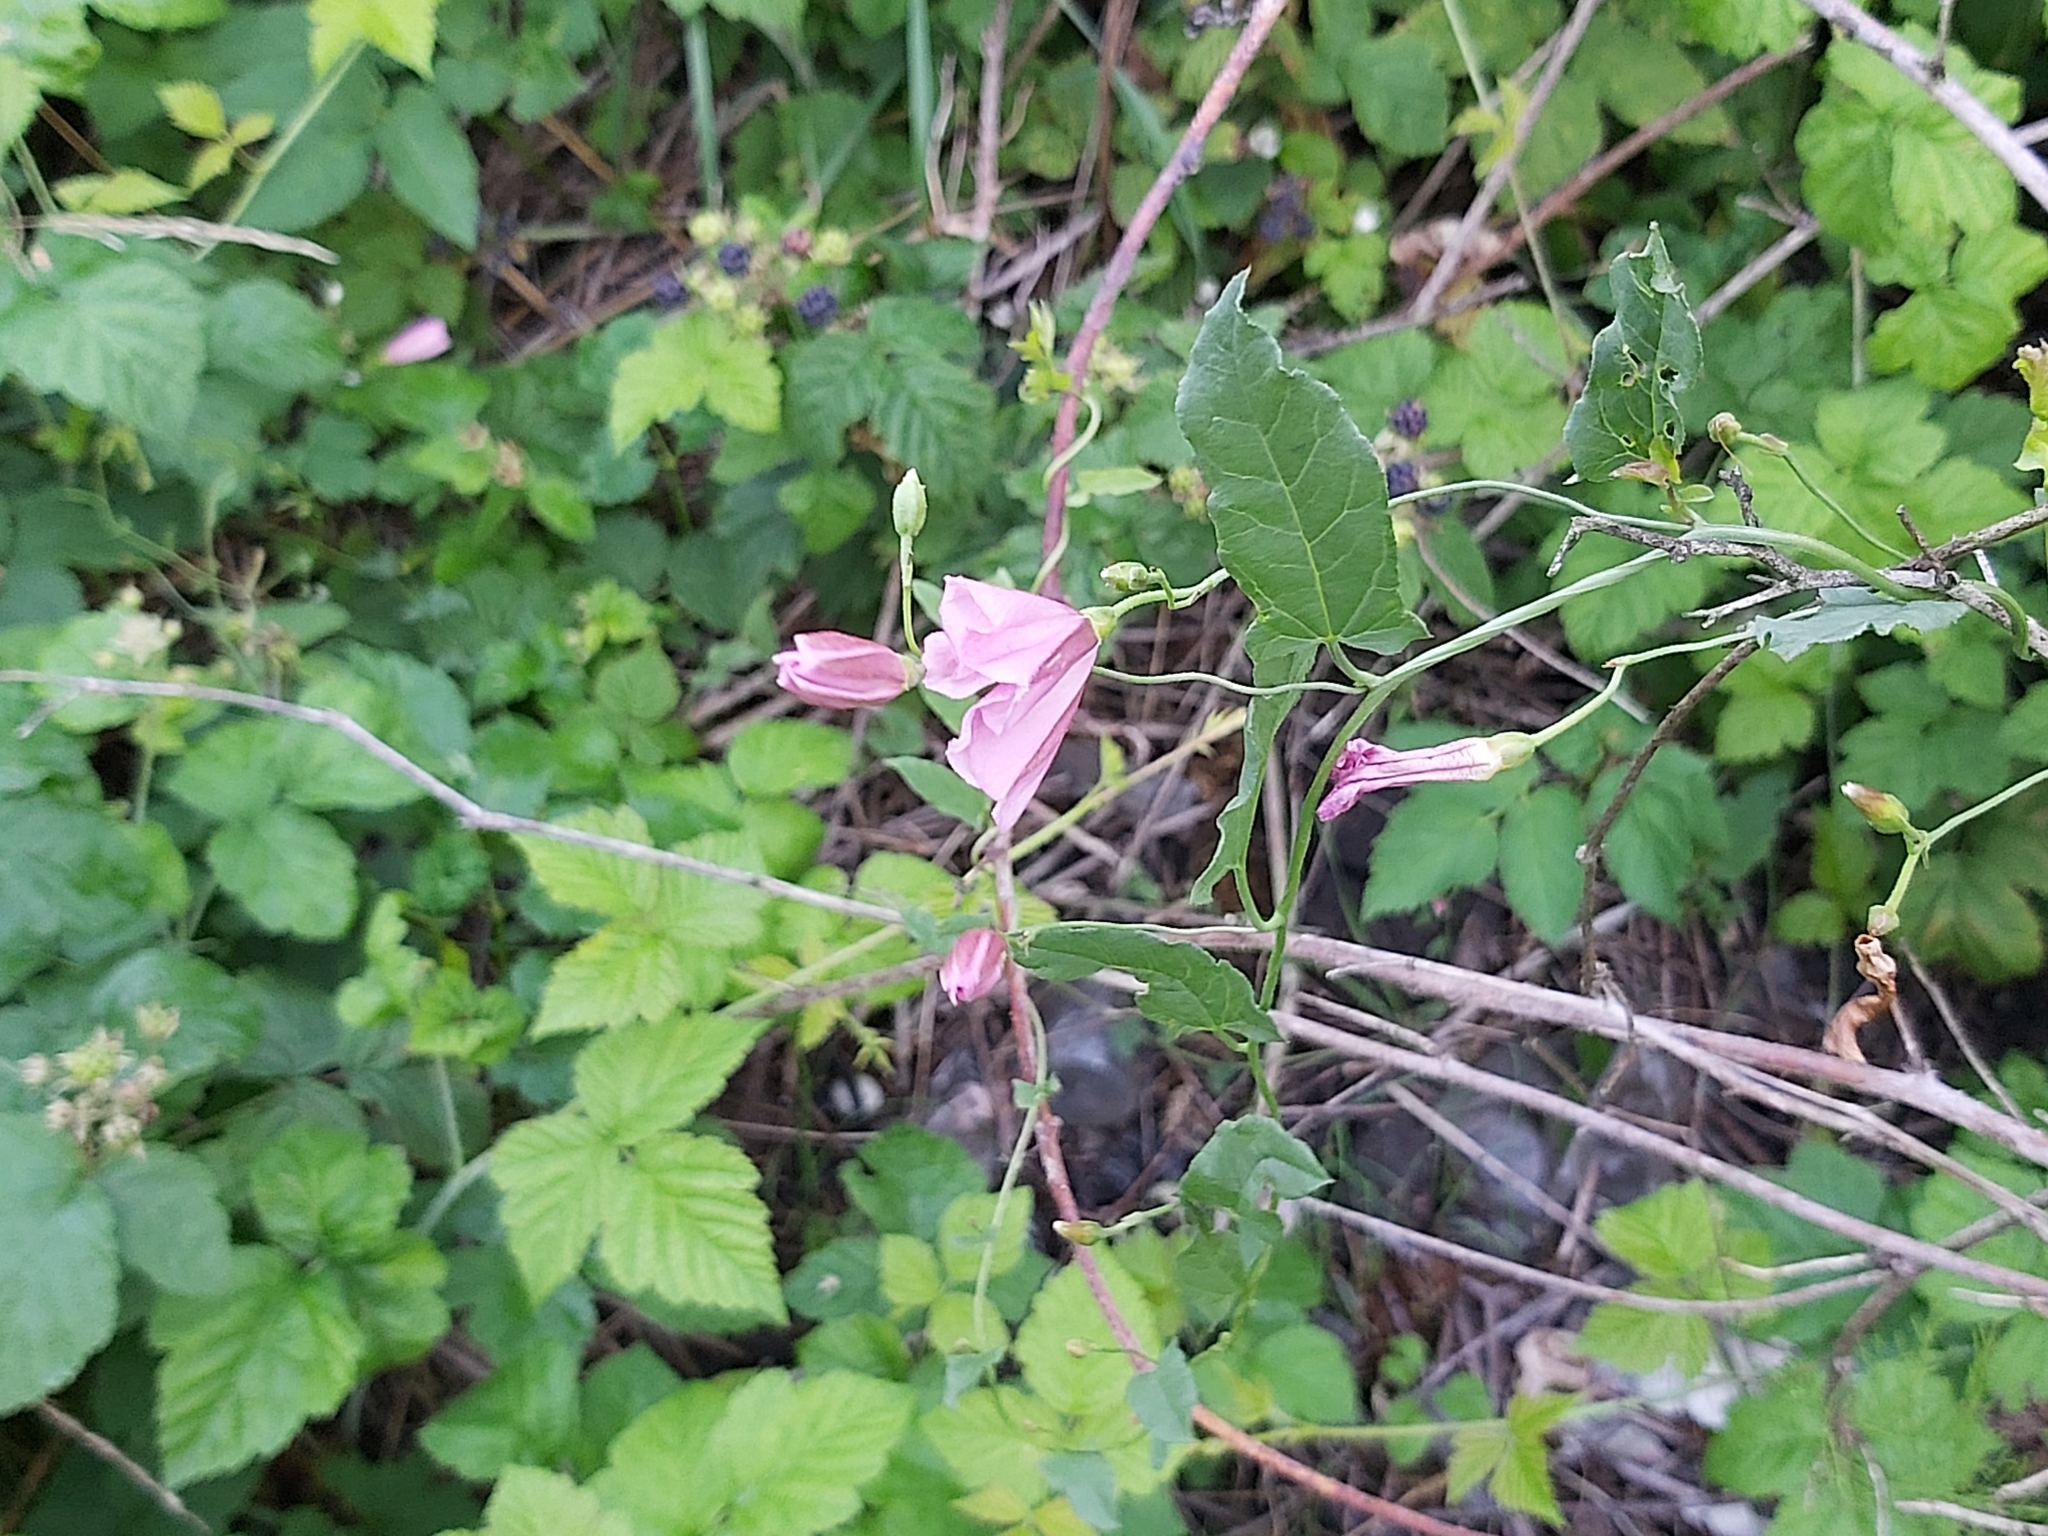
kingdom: Plantae
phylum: Tracheophyta
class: Magnoliopsida
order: Solanales
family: Convolvulaceae
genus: Convolvulus
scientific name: Convolvulus arvensis
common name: Field bindweed
